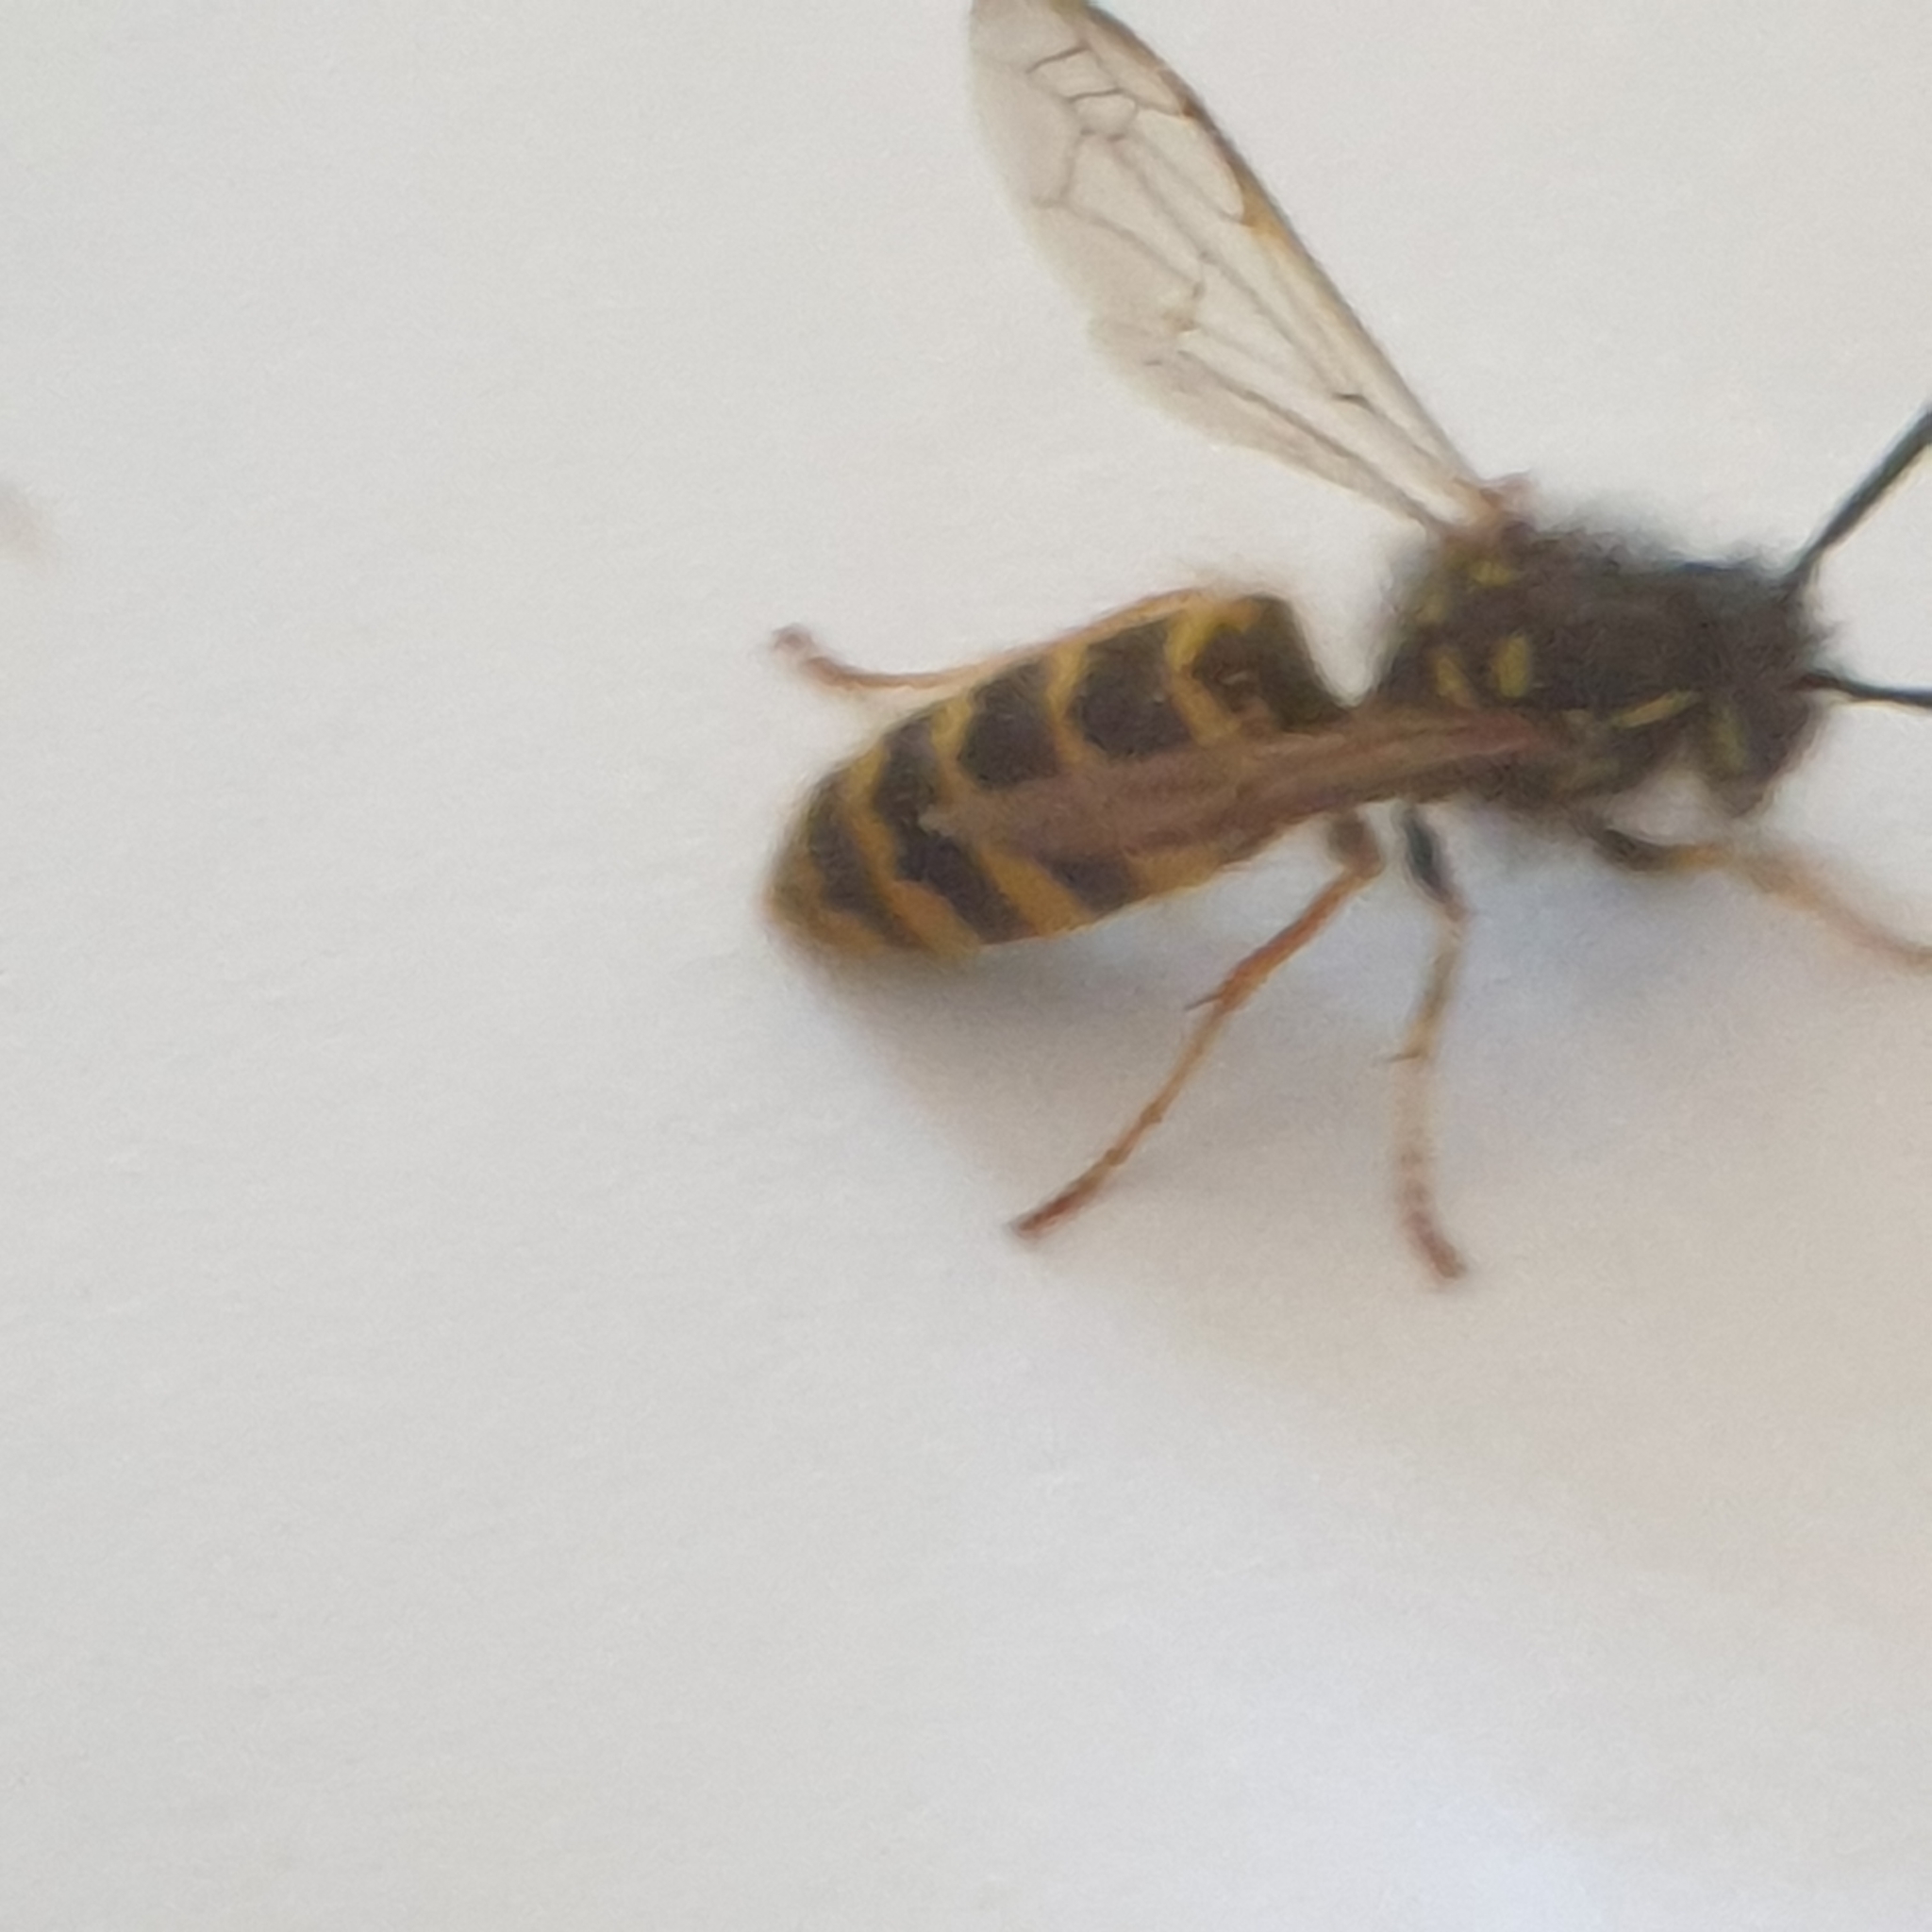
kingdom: Animalia
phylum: Arthropoda
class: Insecta
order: Hymenoptera
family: Vespidae
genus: Vespula
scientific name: Vespula vulgaris
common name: Common wasp
